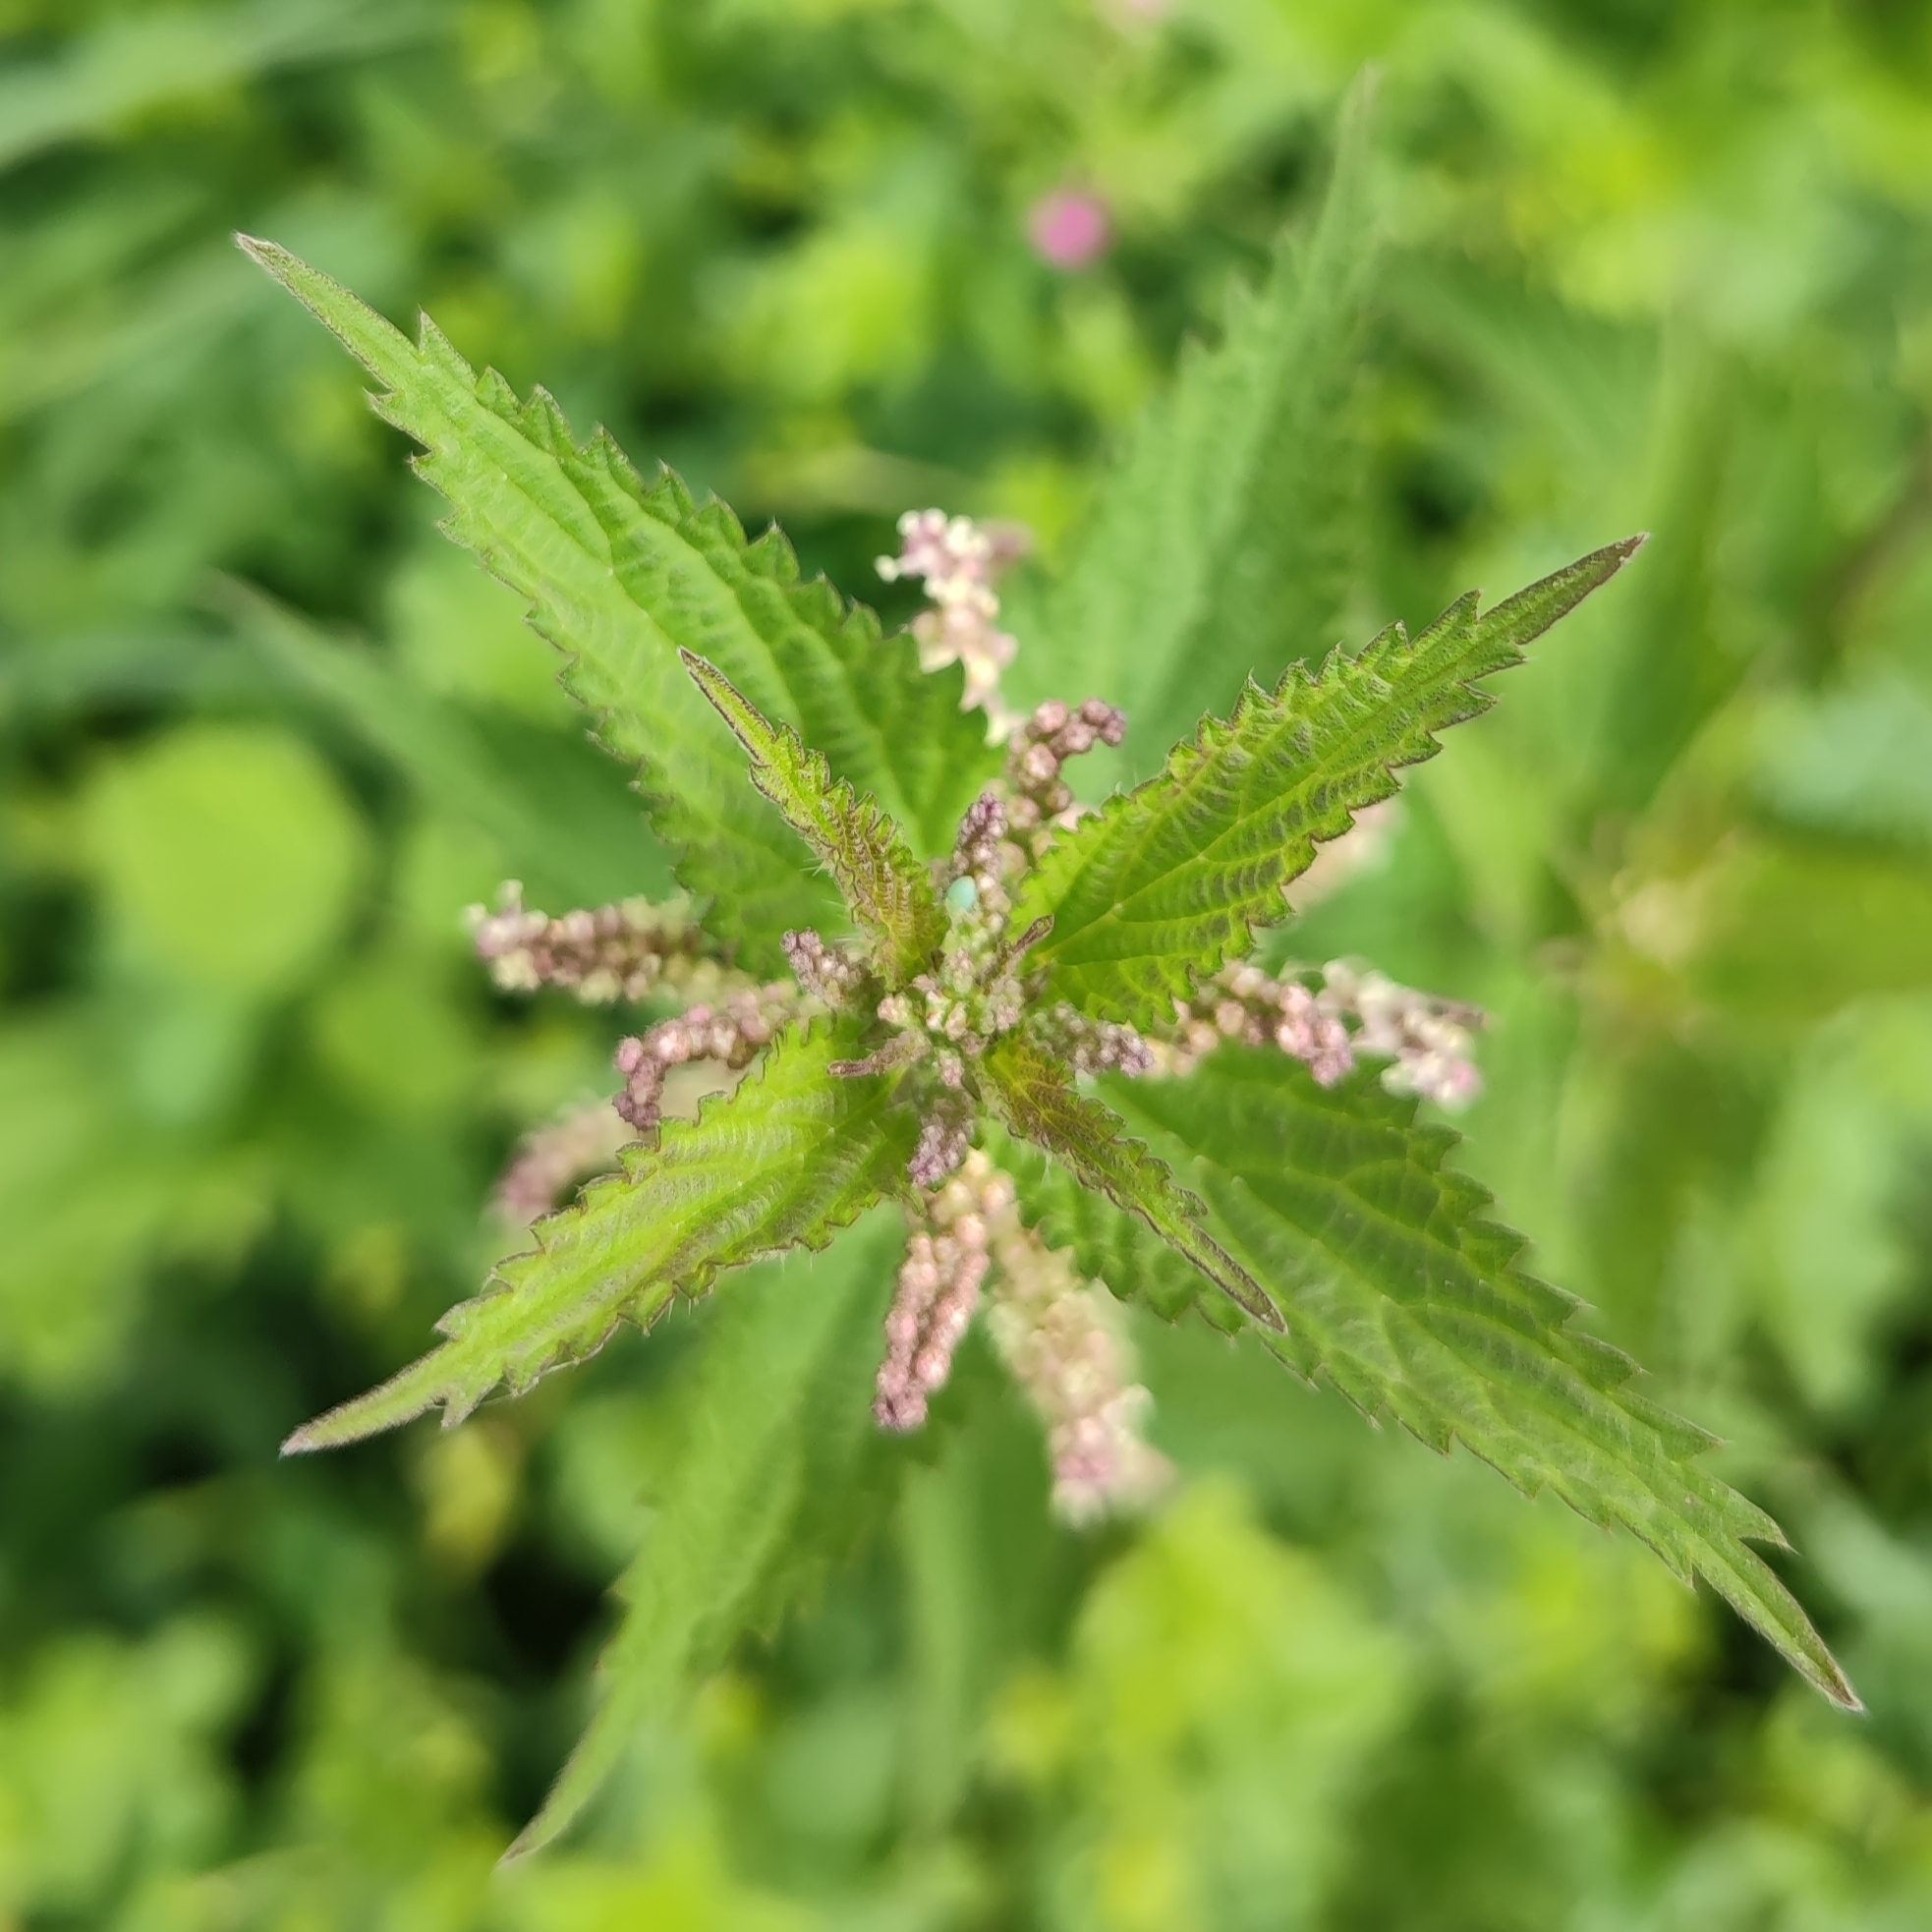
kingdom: Plantae
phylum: Tracheophyta
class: Magnoliopsida
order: Rosales
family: Urticaceae
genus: Urtica
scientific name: Urtica dioica
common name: Common nettle
